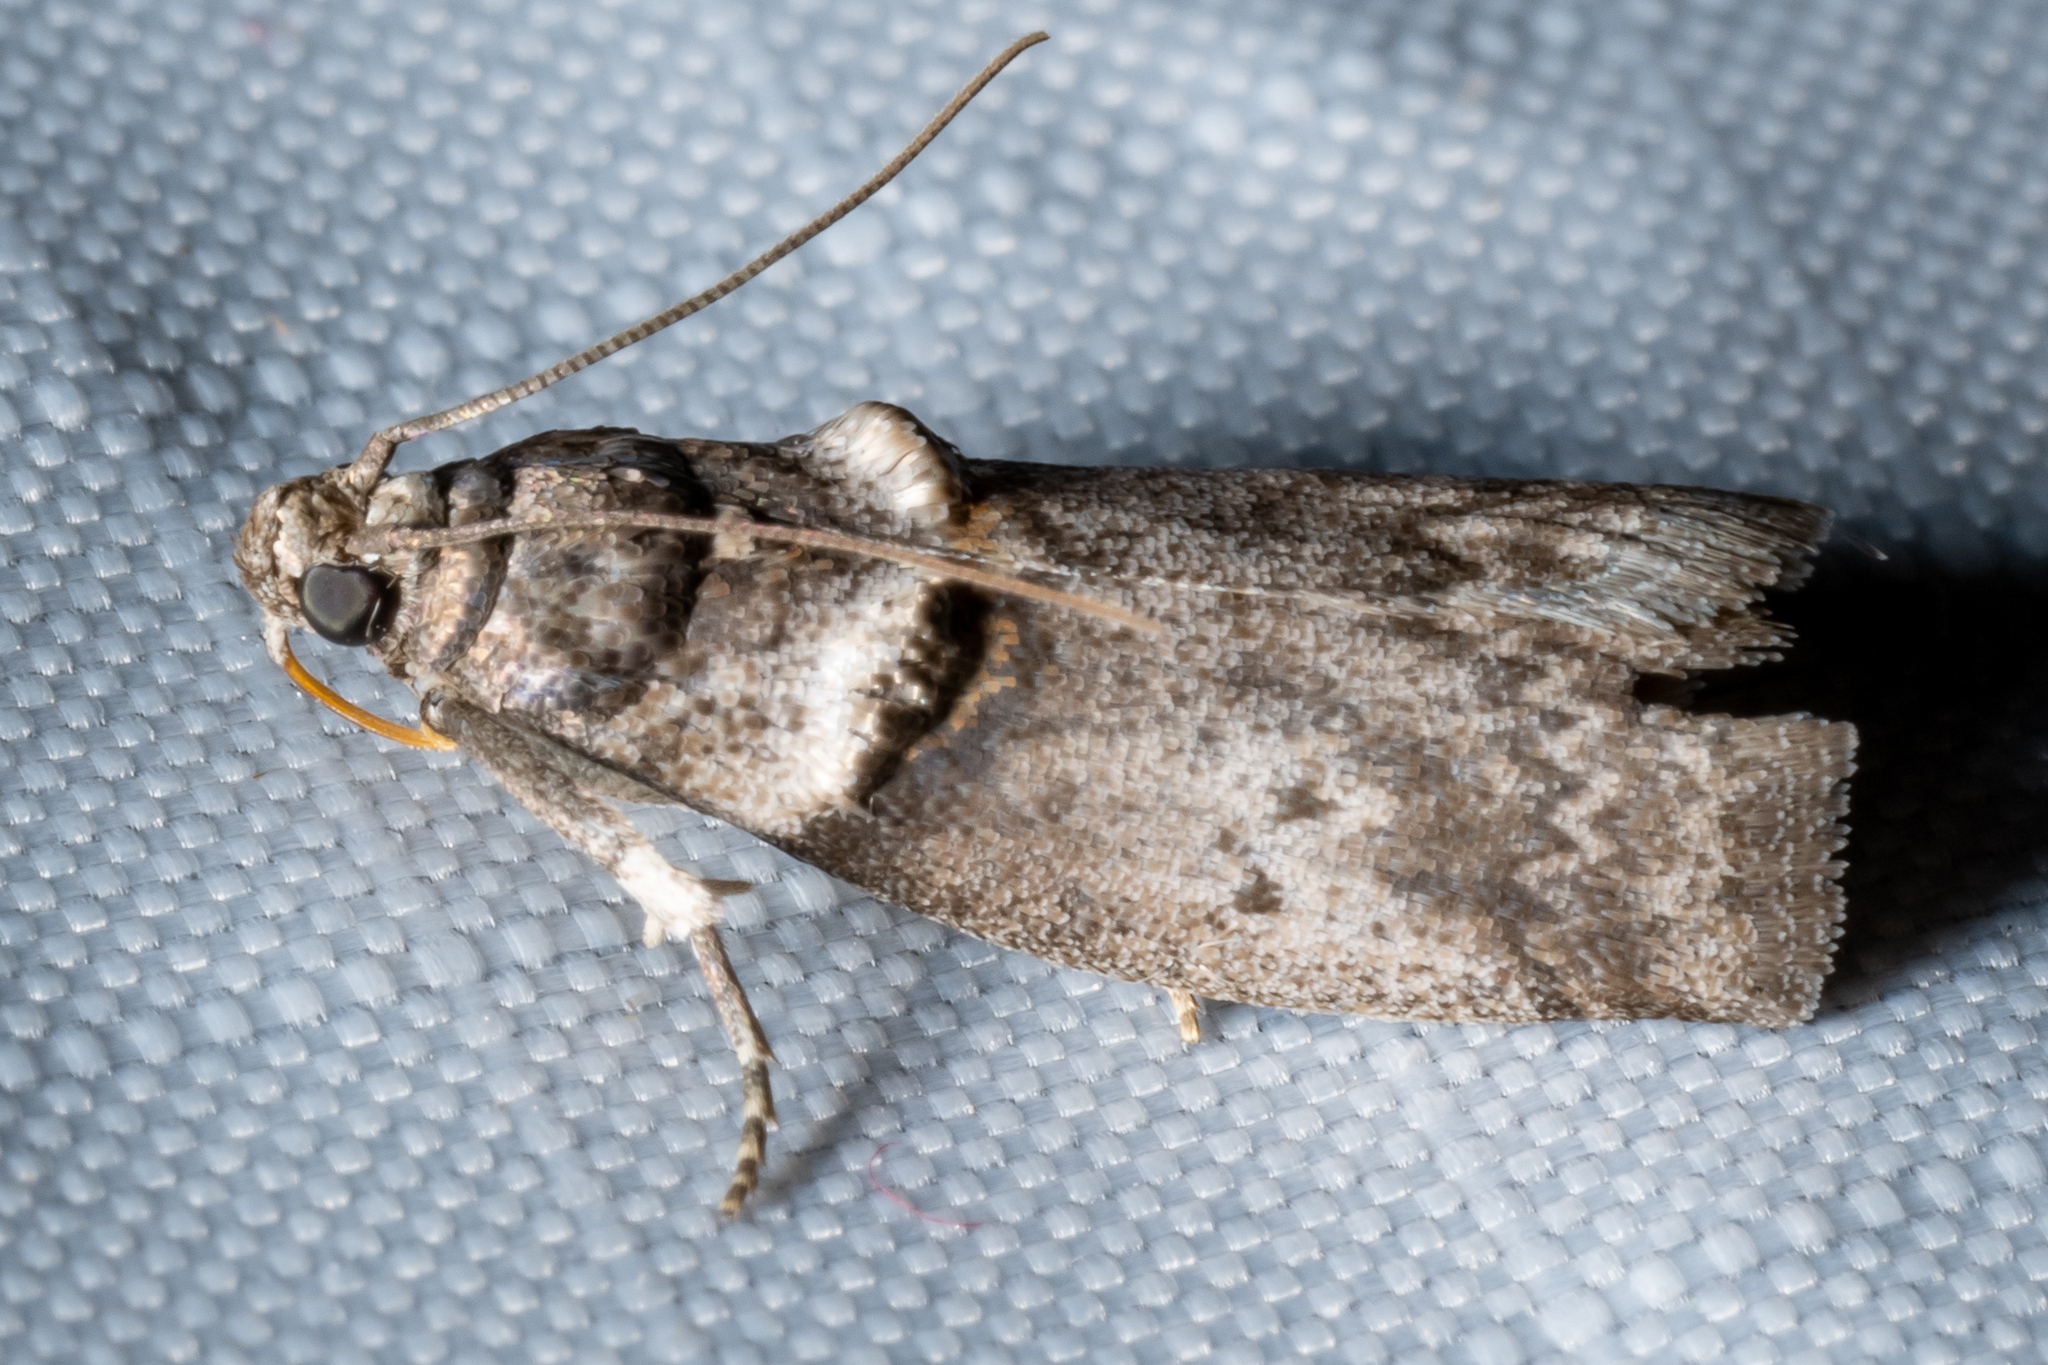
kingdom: Animalia
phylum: Arthropoda
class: Insecta
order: Lepidoptera
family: Pyralidae
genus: Acrobasis
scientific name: Acrobasis caryae
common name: Hickory shoot borer moth
